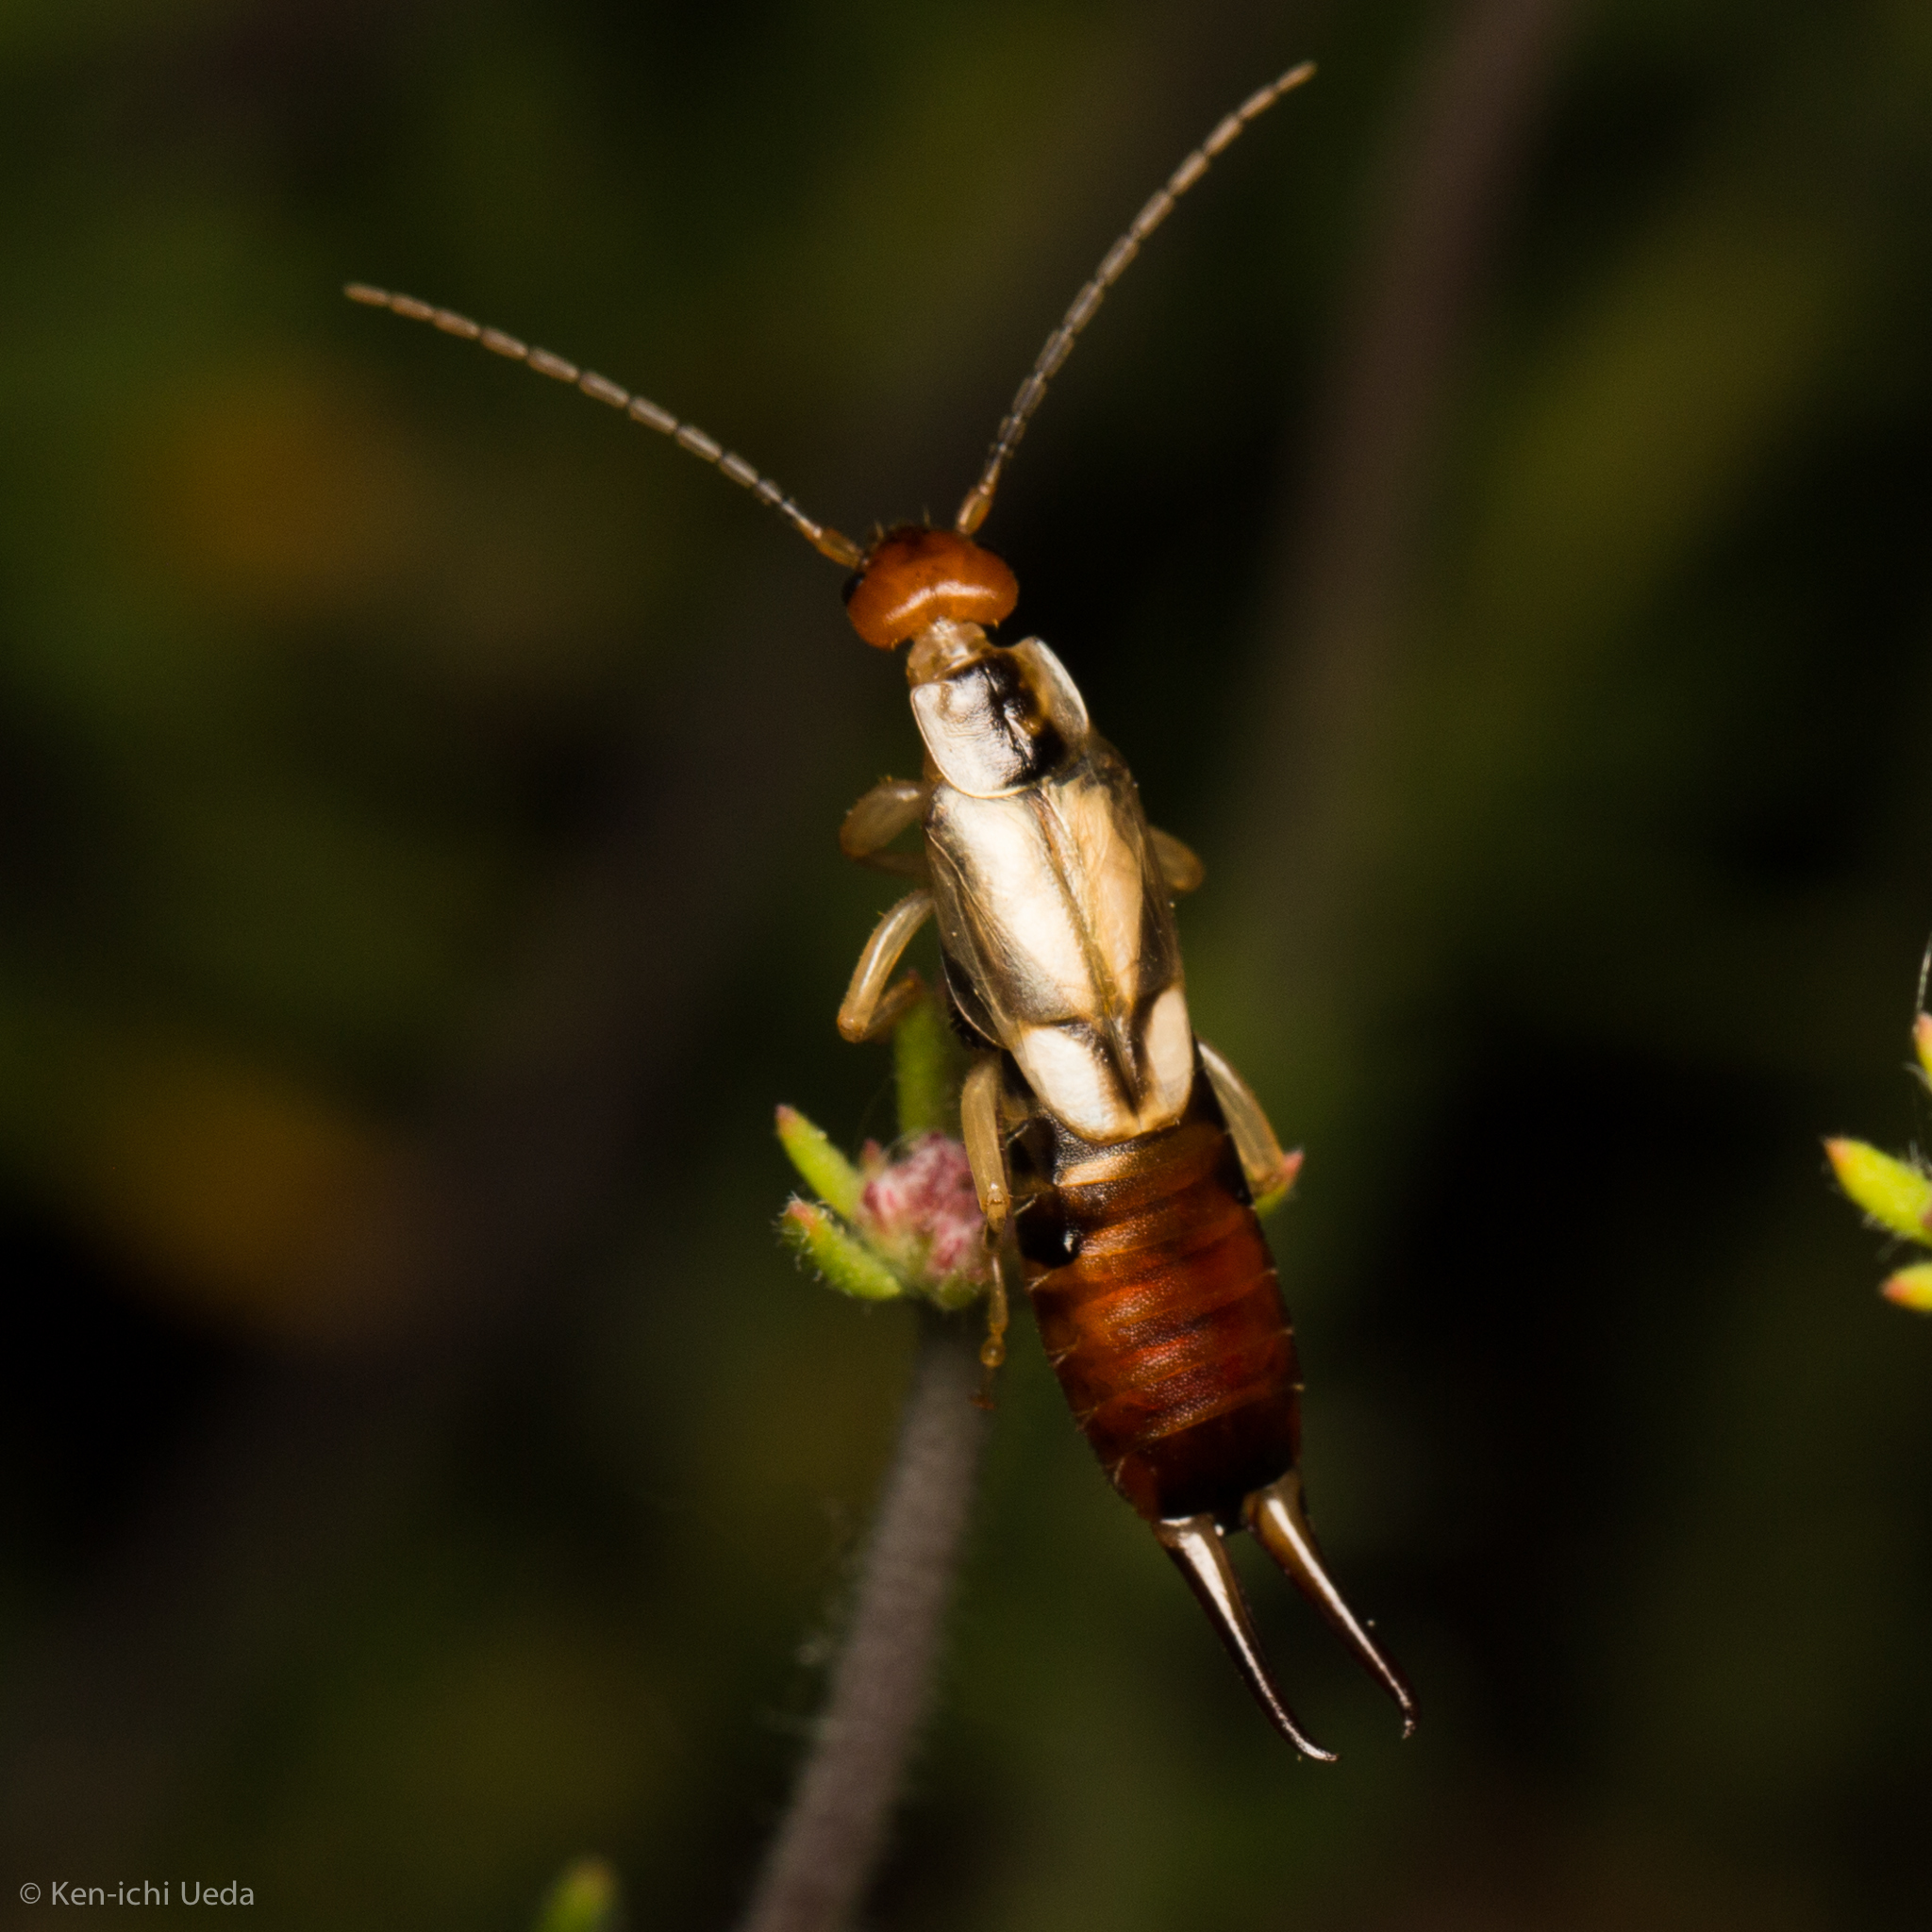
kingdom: Animalia
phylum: Arthropoda
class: Insecta
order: Dermaptera
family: Forficulidae
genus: Forficula
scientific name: Forficula
